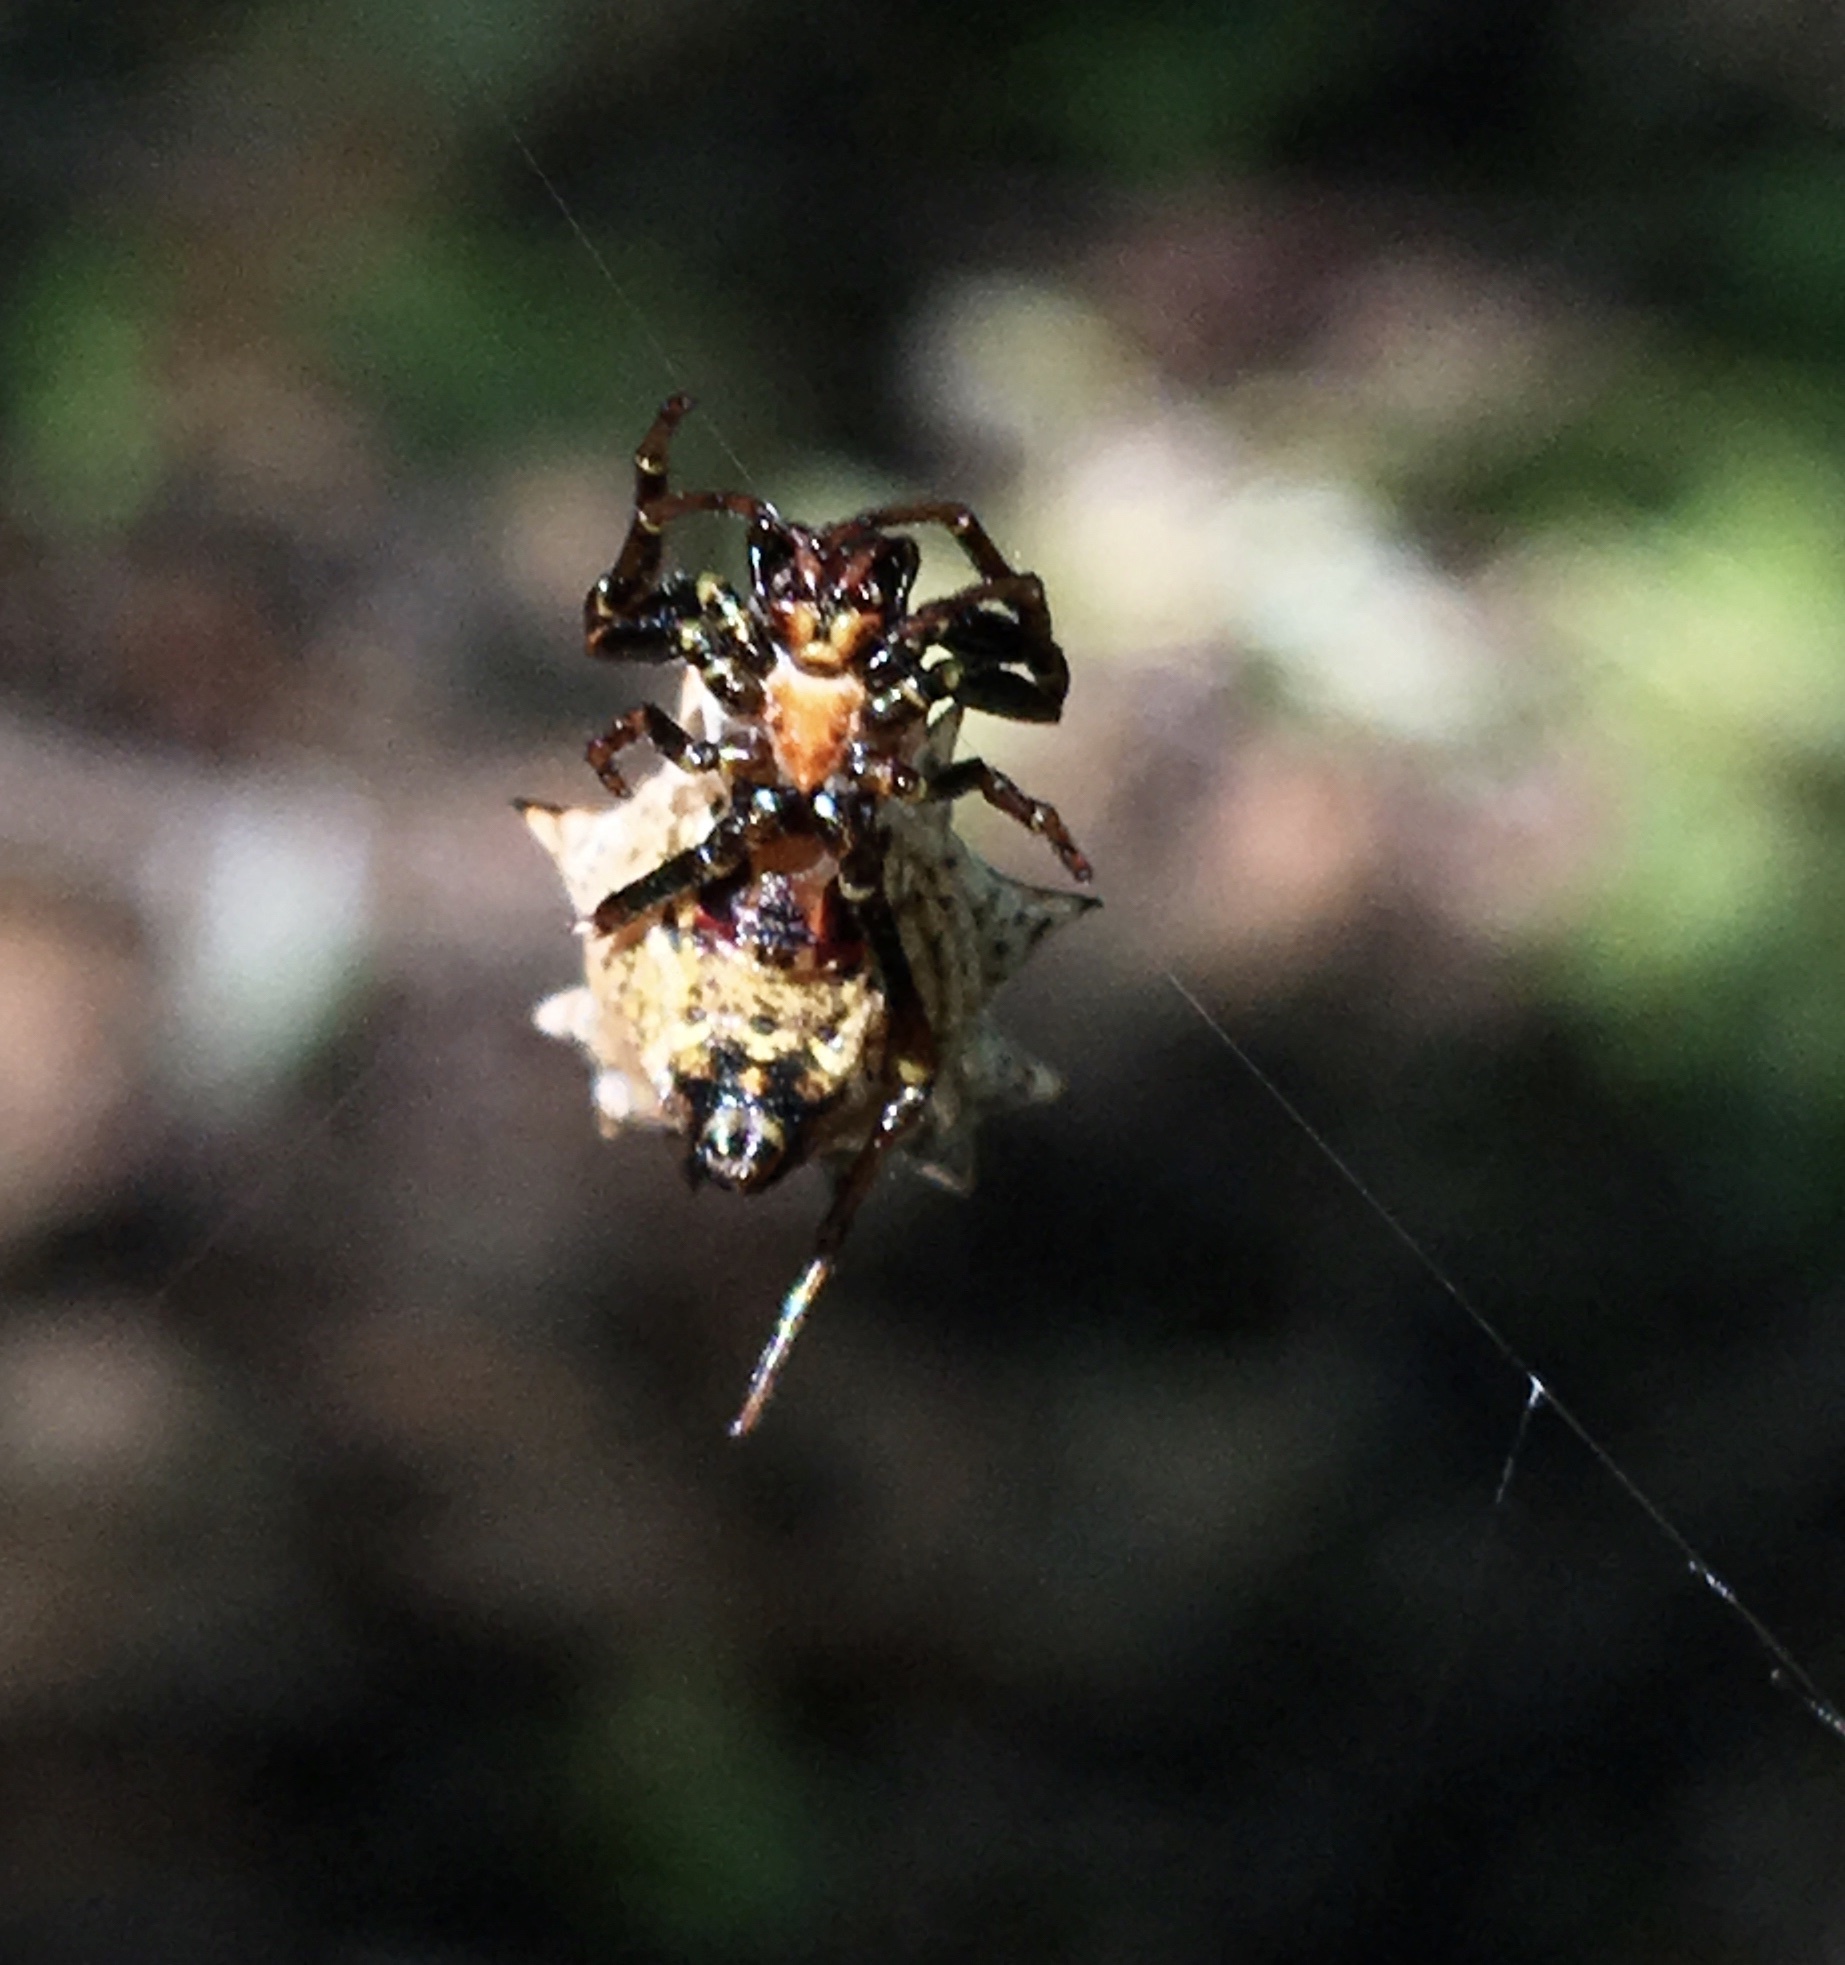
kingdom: Animalia
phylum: Arthropoda
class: Arachnida
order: Araneae
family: Araneidae
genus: Micrathena
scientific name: Micrathena gracilis
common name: Orb weavers
